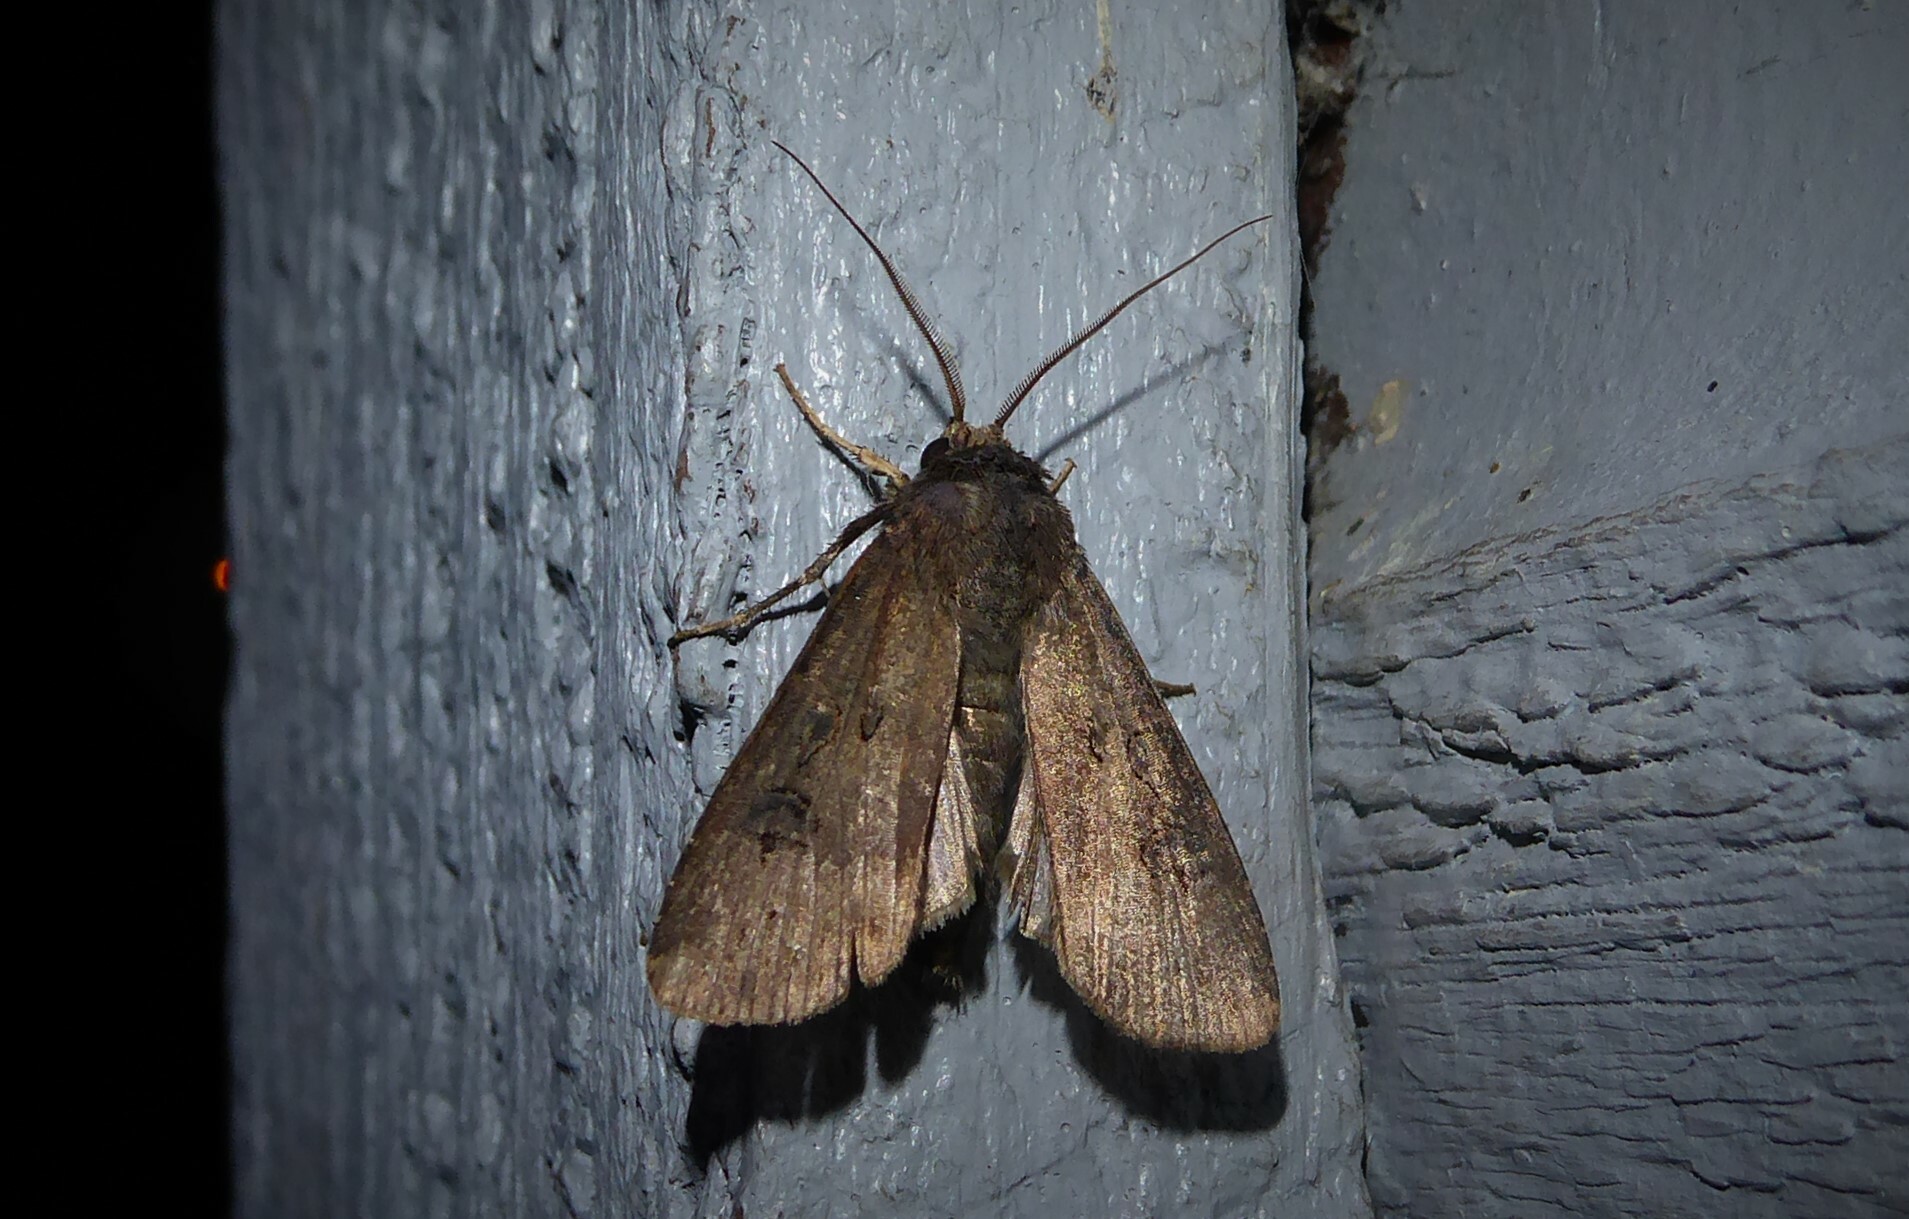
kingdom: Animalia
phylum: Arthropoda
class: Insecta
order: Lepidoptera
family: Noctuidae
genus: Agrotis
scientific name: Agrotis ipsilon
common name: Dark sword-grass
